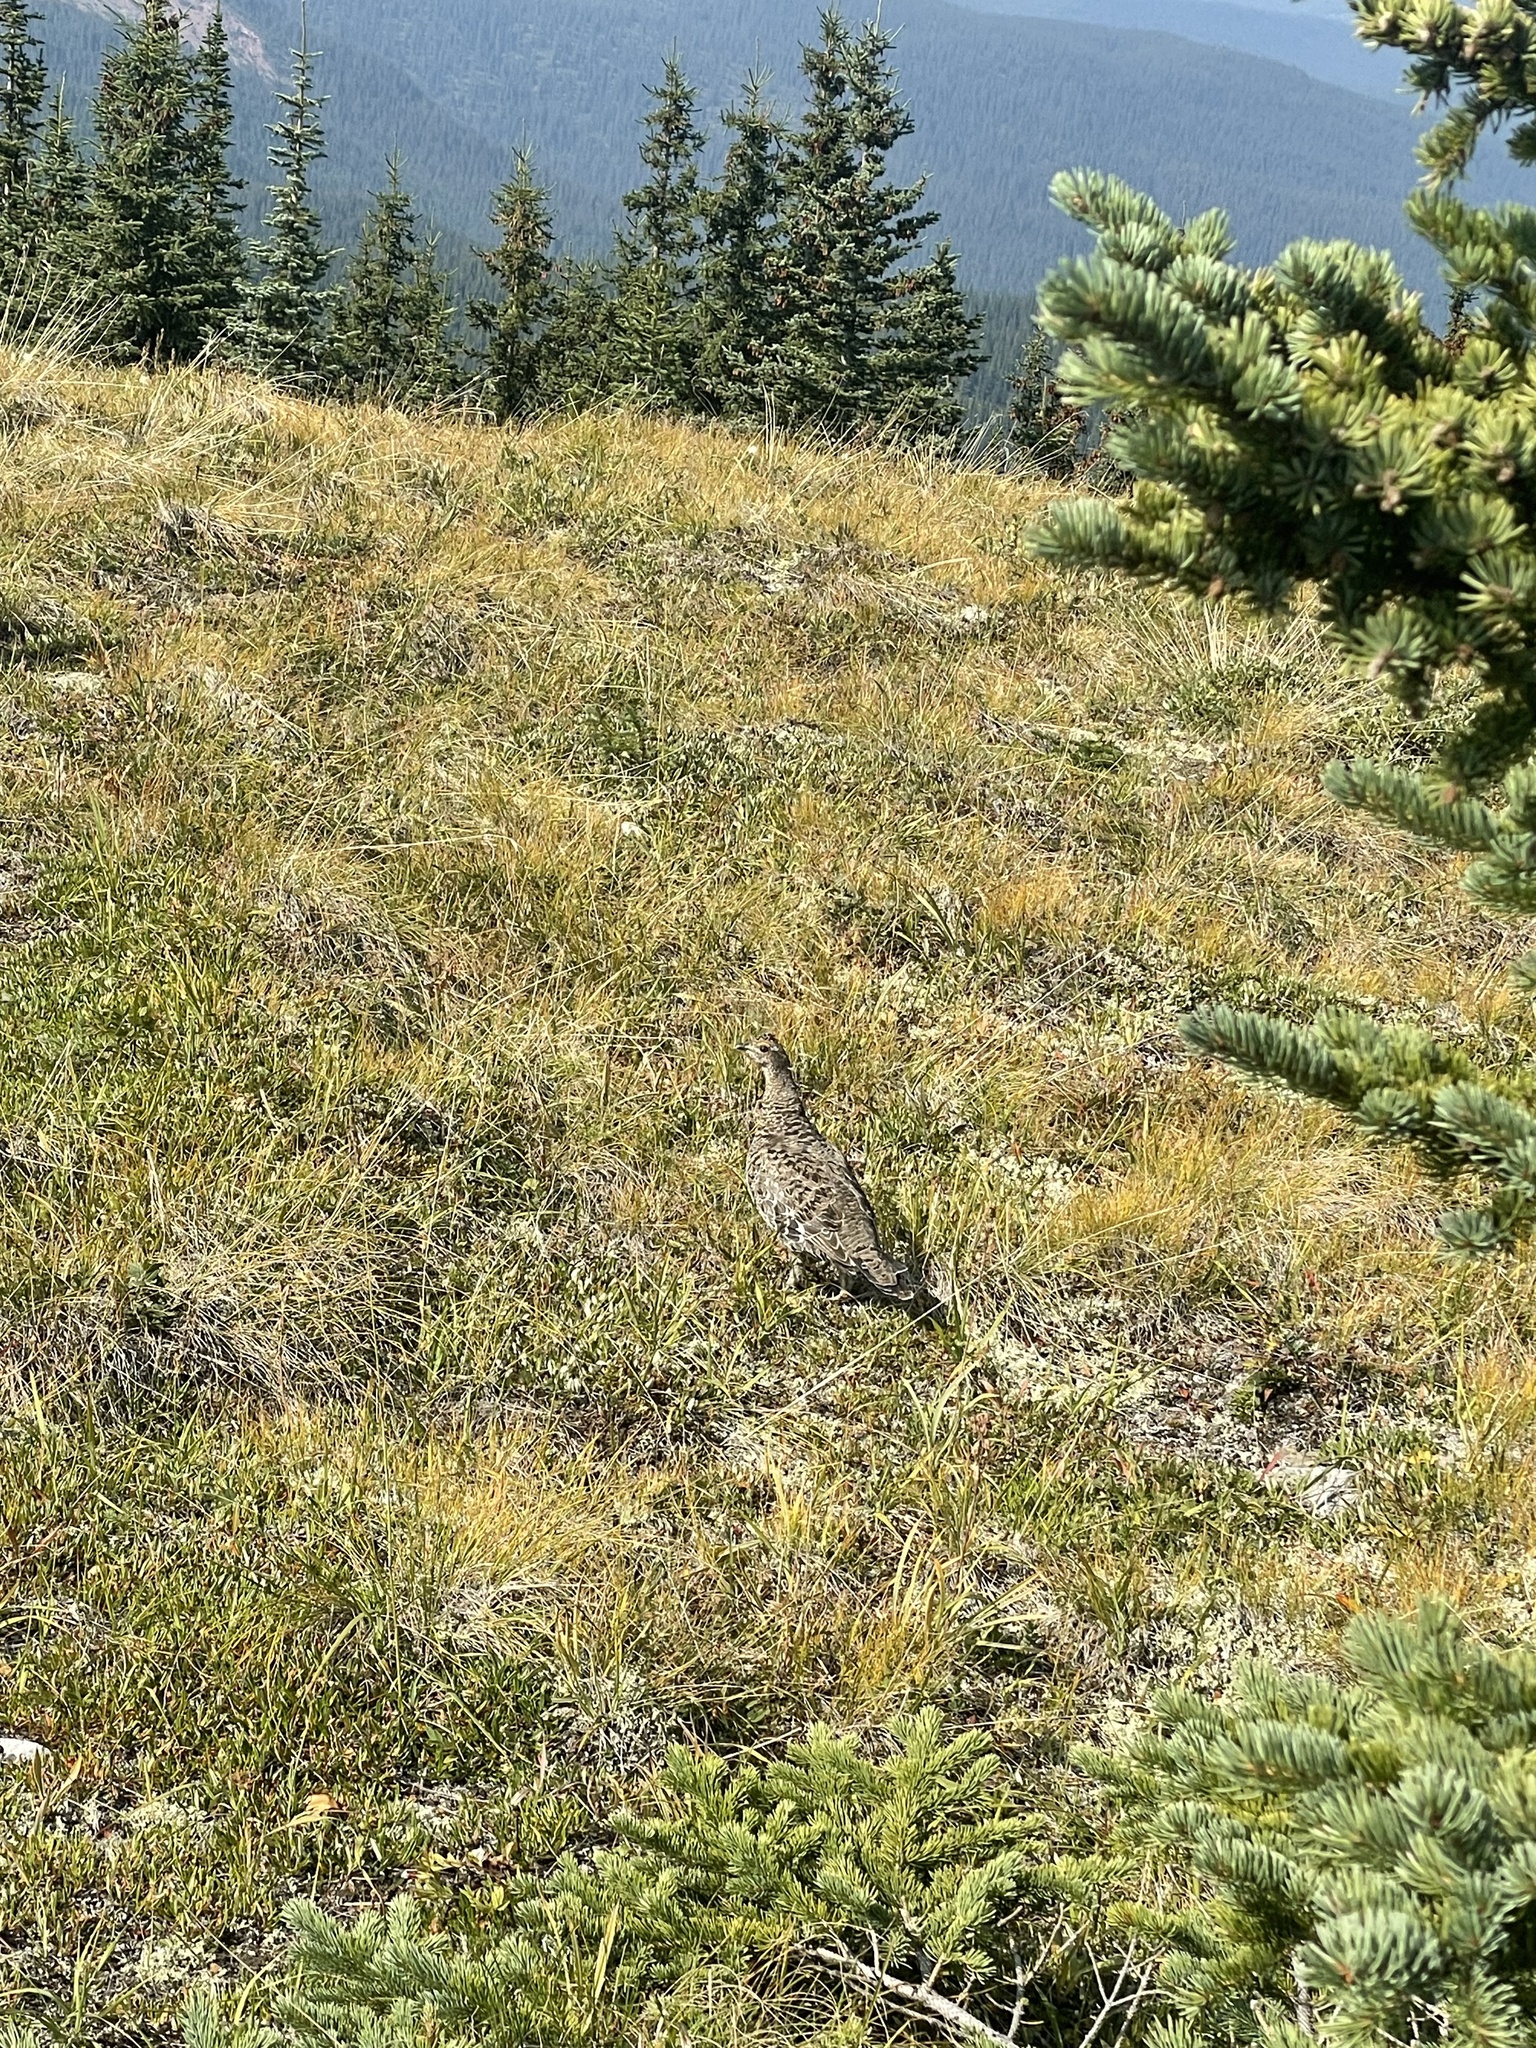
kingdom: Animalia
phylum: Chordata
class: Aves
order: Galliformes
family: Phasianidae
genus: Dendragapus
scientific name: Dendragapus obscurus
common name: Dusky grouse
